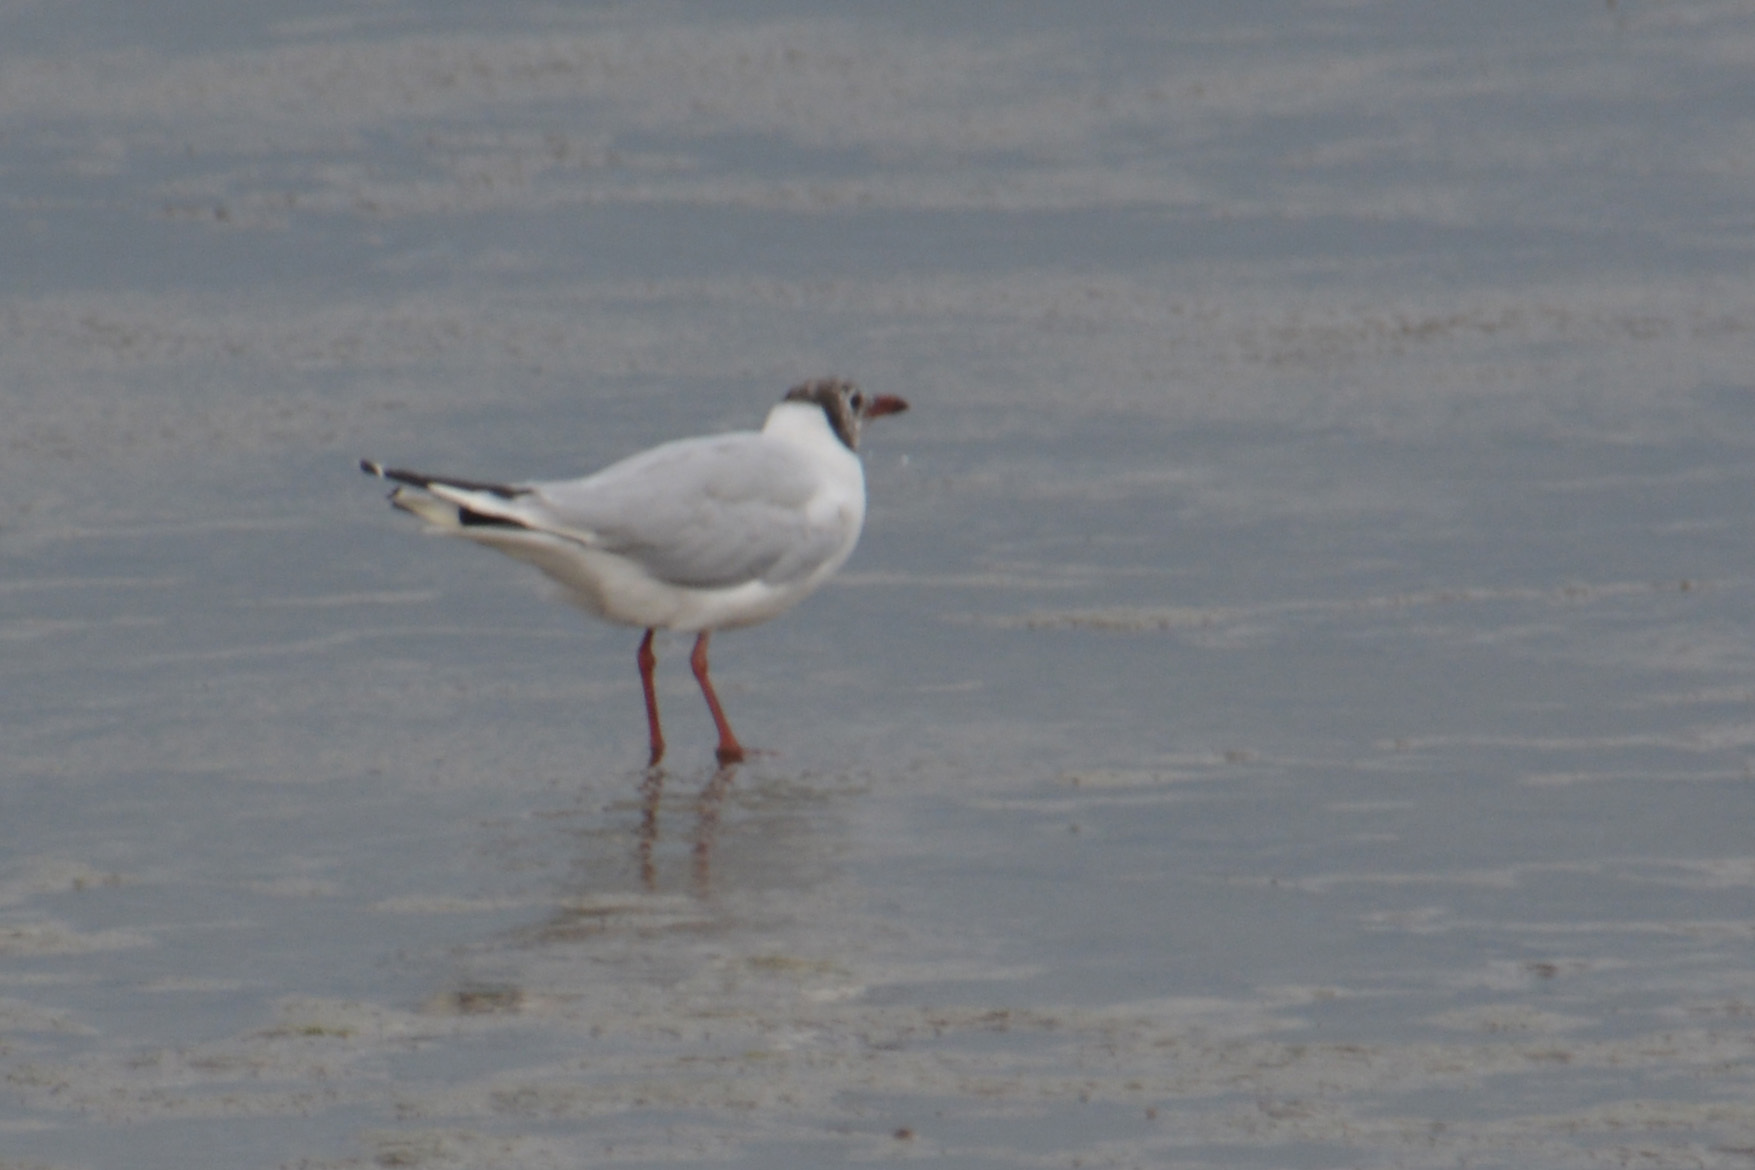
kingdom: Animalia
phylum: Chordata
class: Aves
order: Charadriiformes
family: Laridae
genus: Chroicocephalus
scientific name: Chroicocephalus maculipennis
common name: Brown-hooded gull
